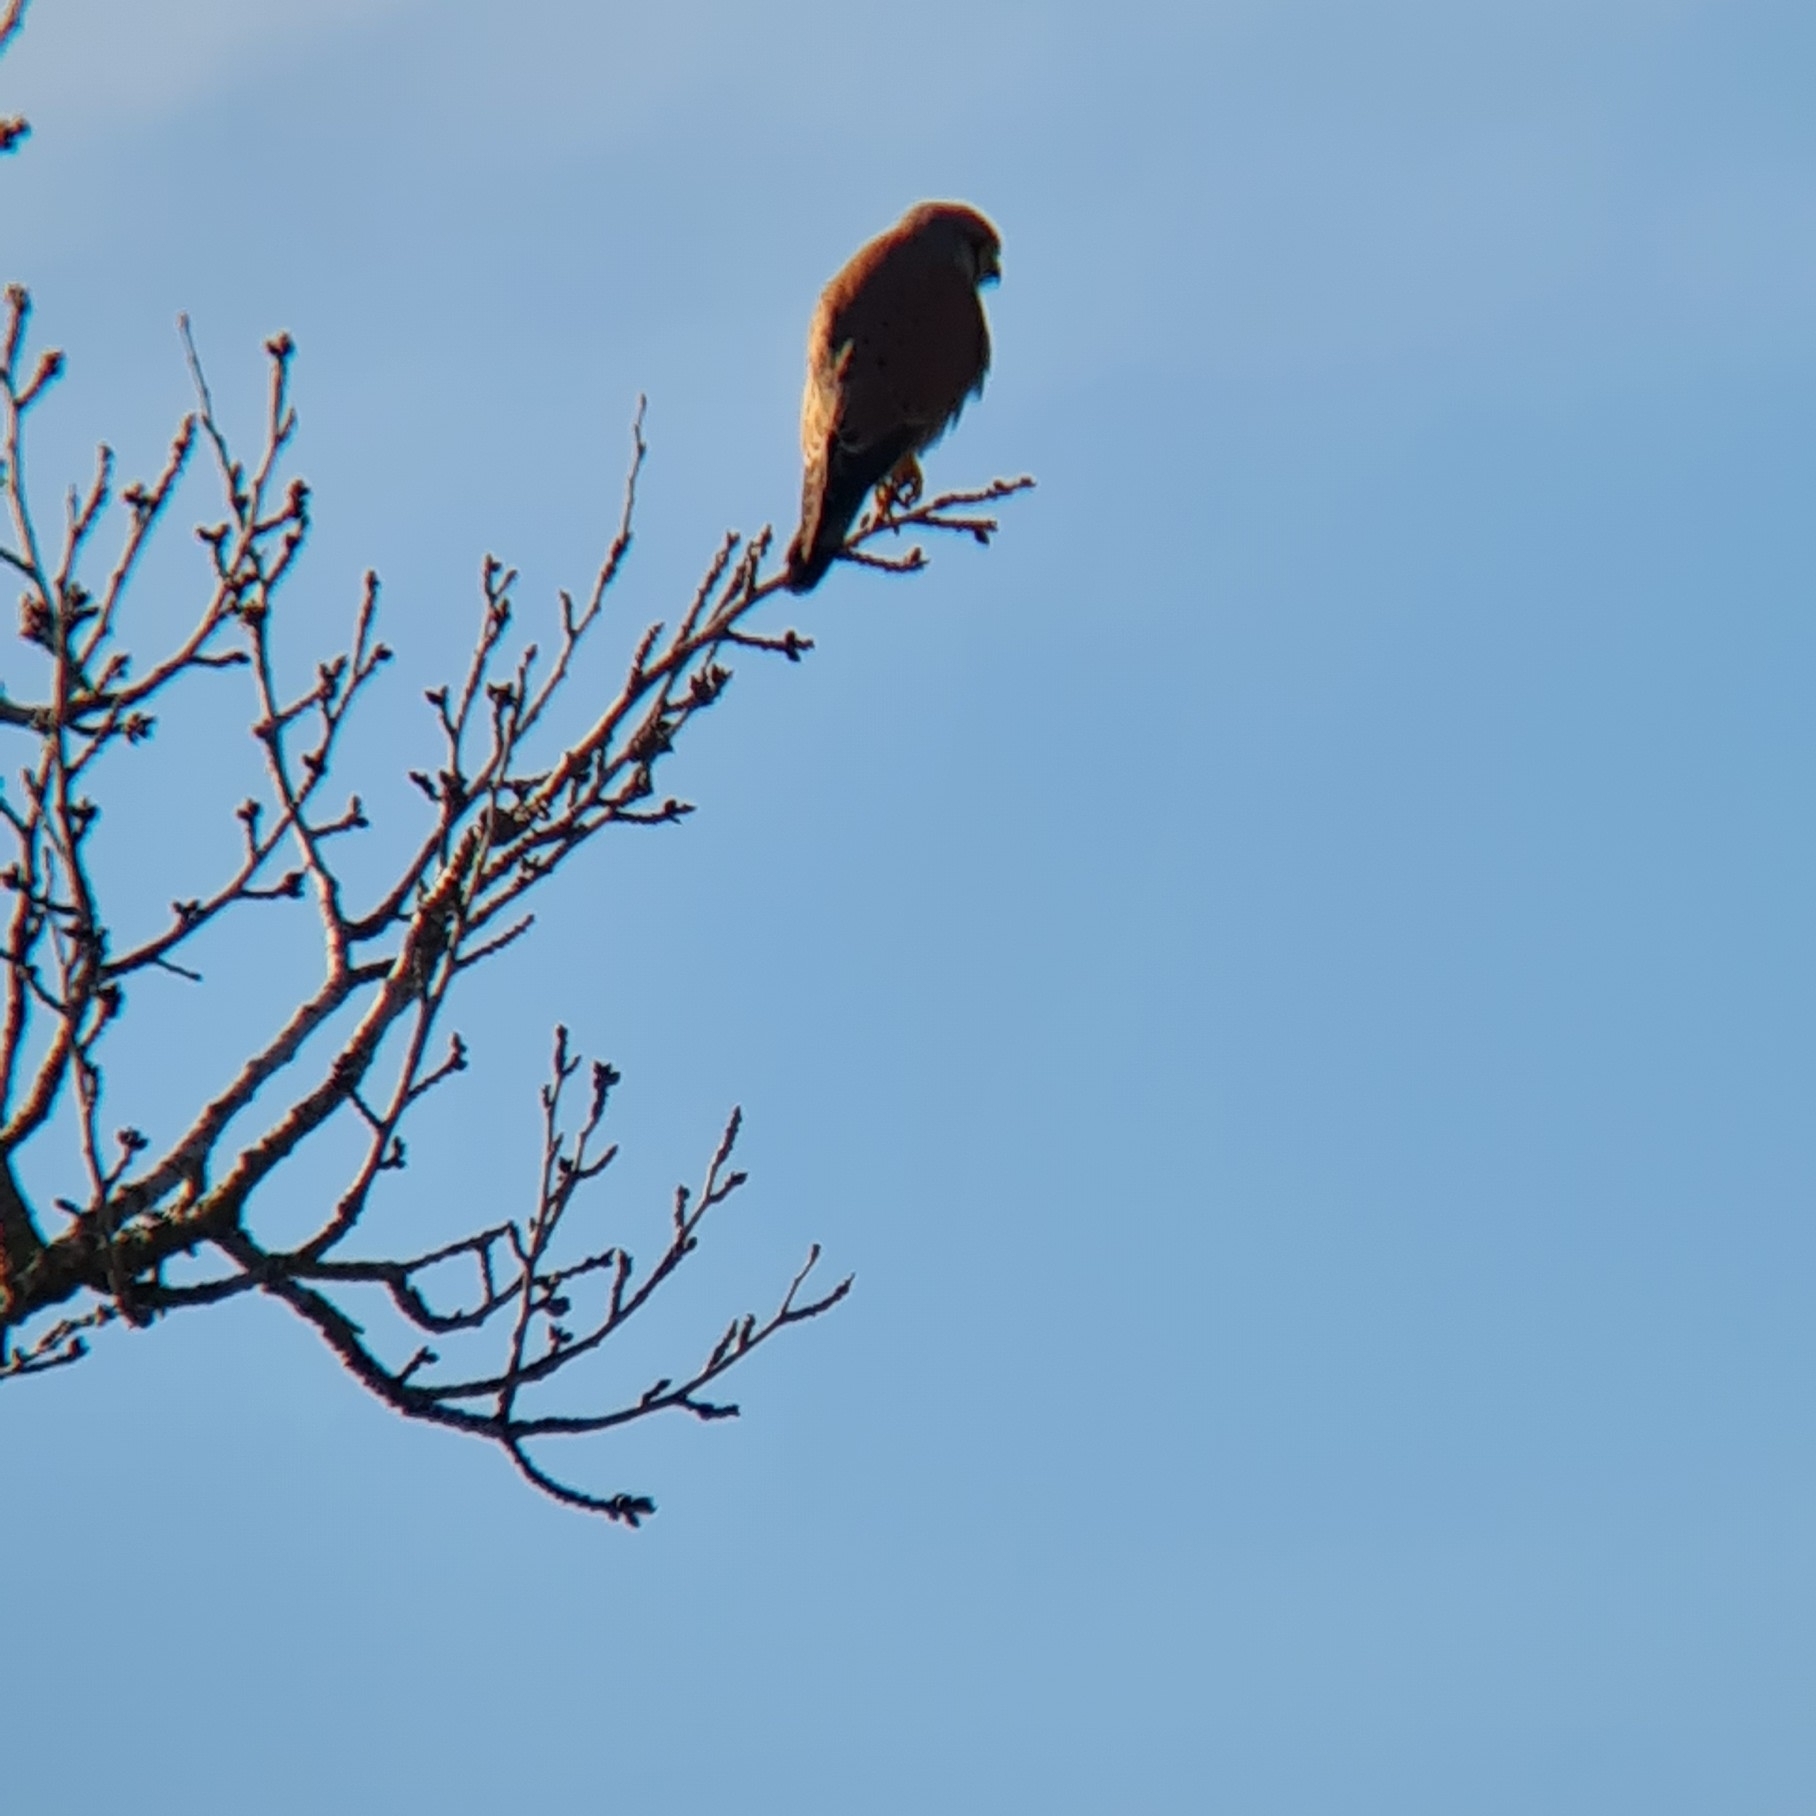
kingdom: Animalia
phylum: Chordata
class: Aves
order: Falconiformes
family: Falconidae
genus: Falco
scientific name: Falco tinnunculus
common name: Common kestrel
